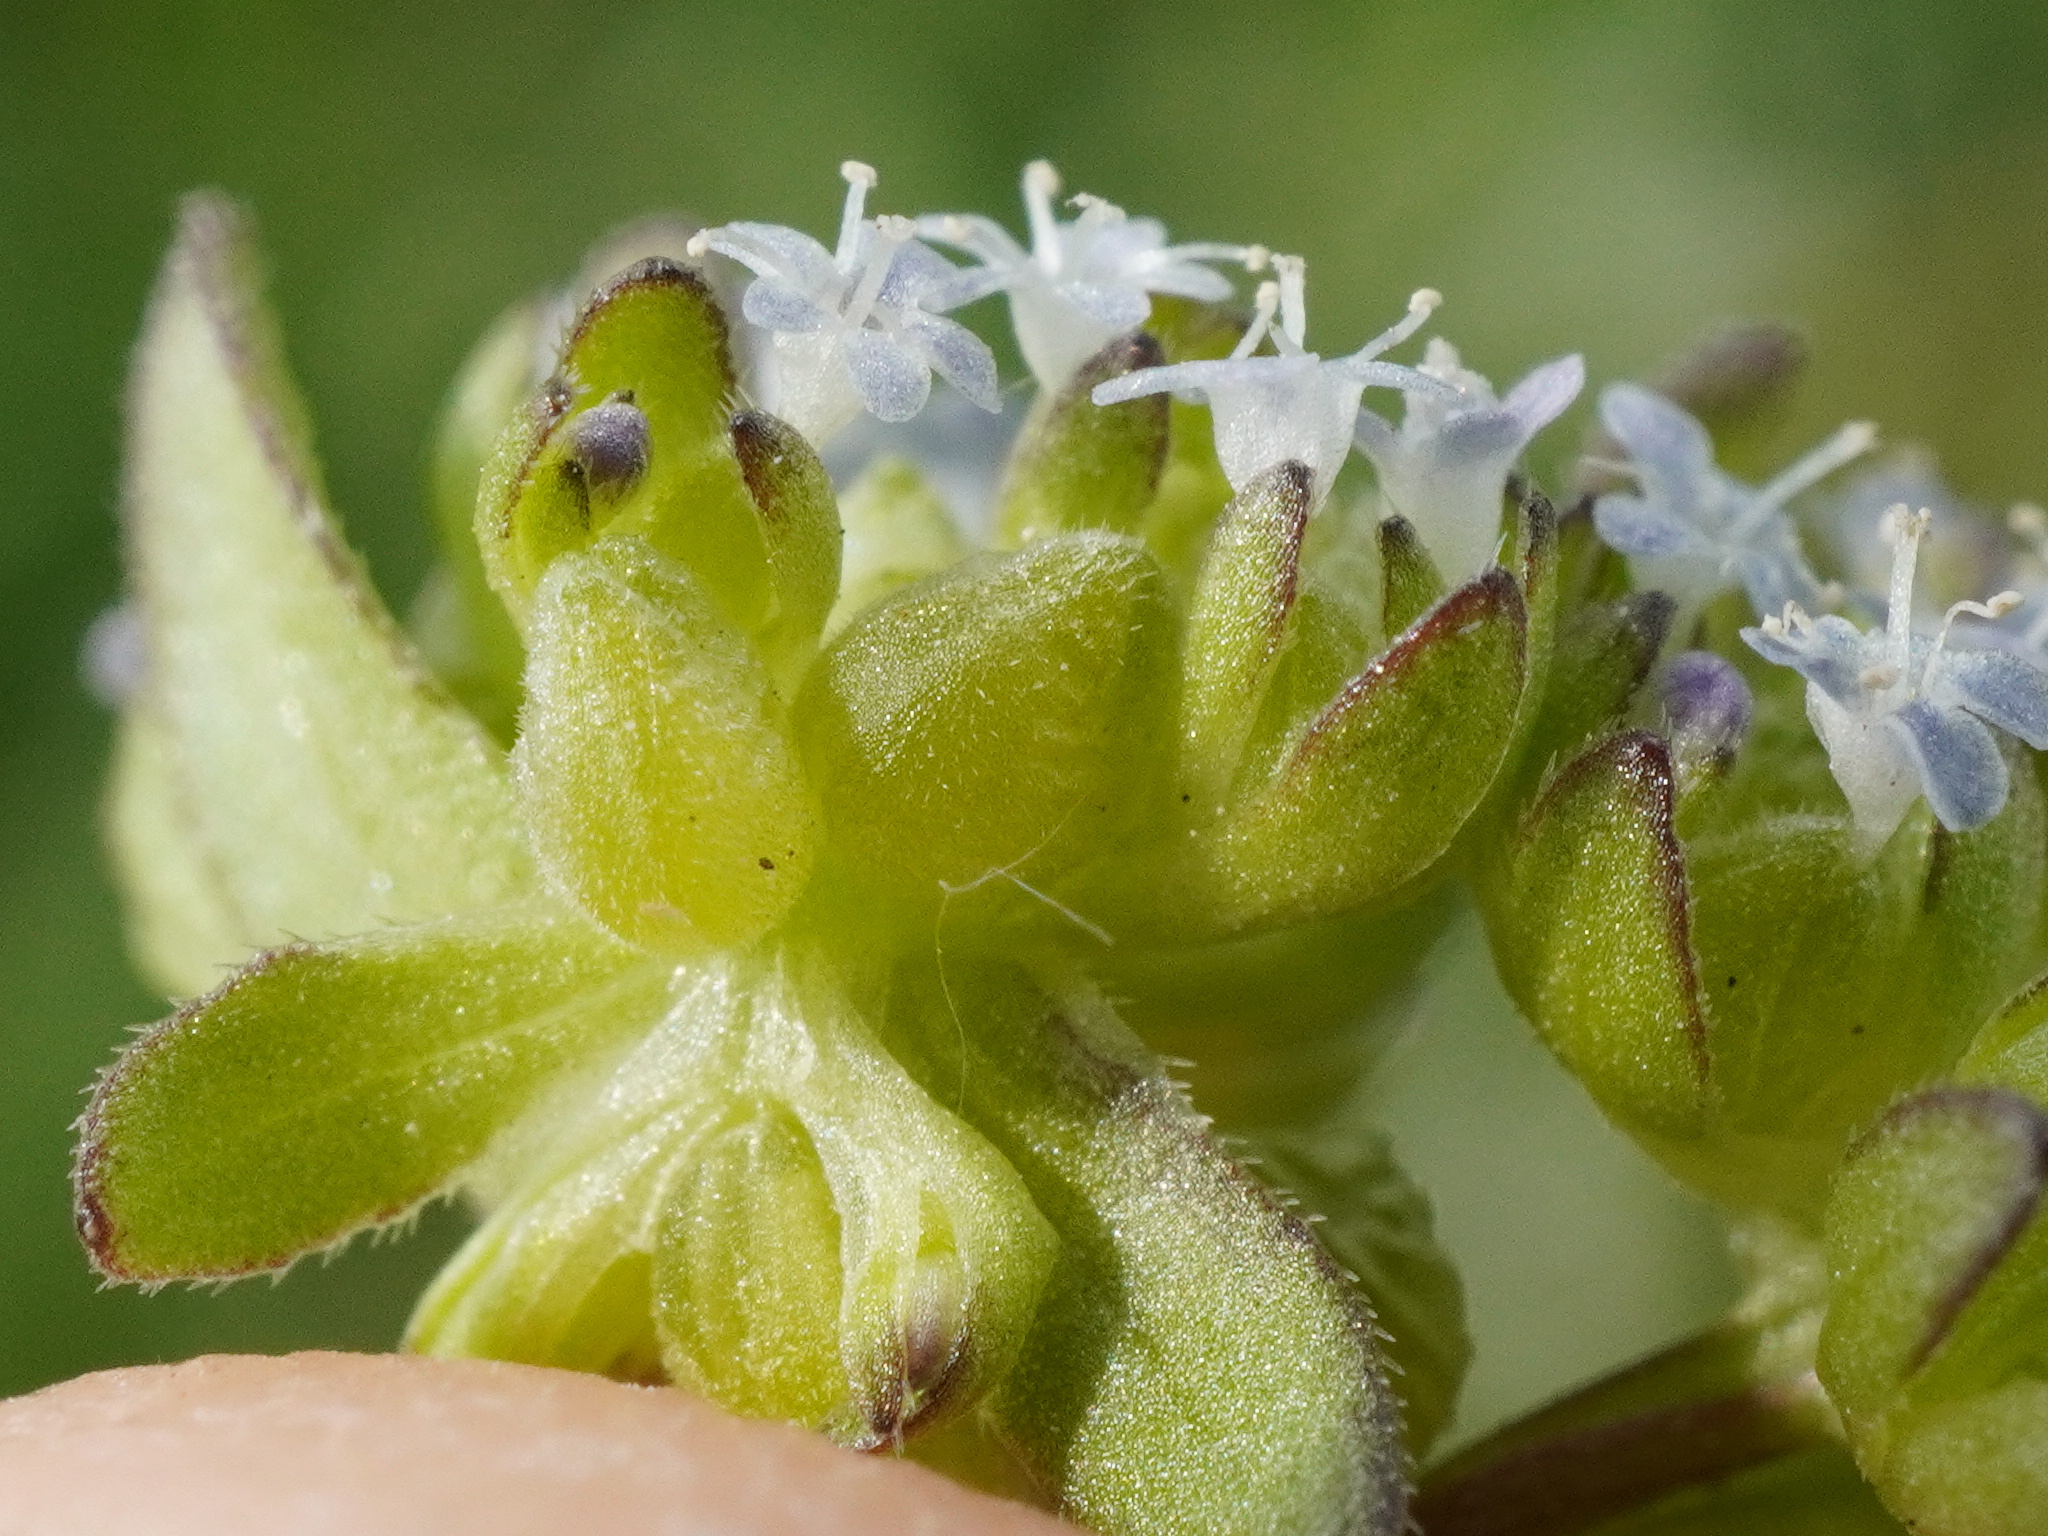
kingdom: Plantae
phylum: Tracheophyta
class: Magnoliopsida
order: Dipsacales
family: Caprifoliaceae
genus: Valerianella
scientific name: Valerianella locusta
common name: Common cornsalad
